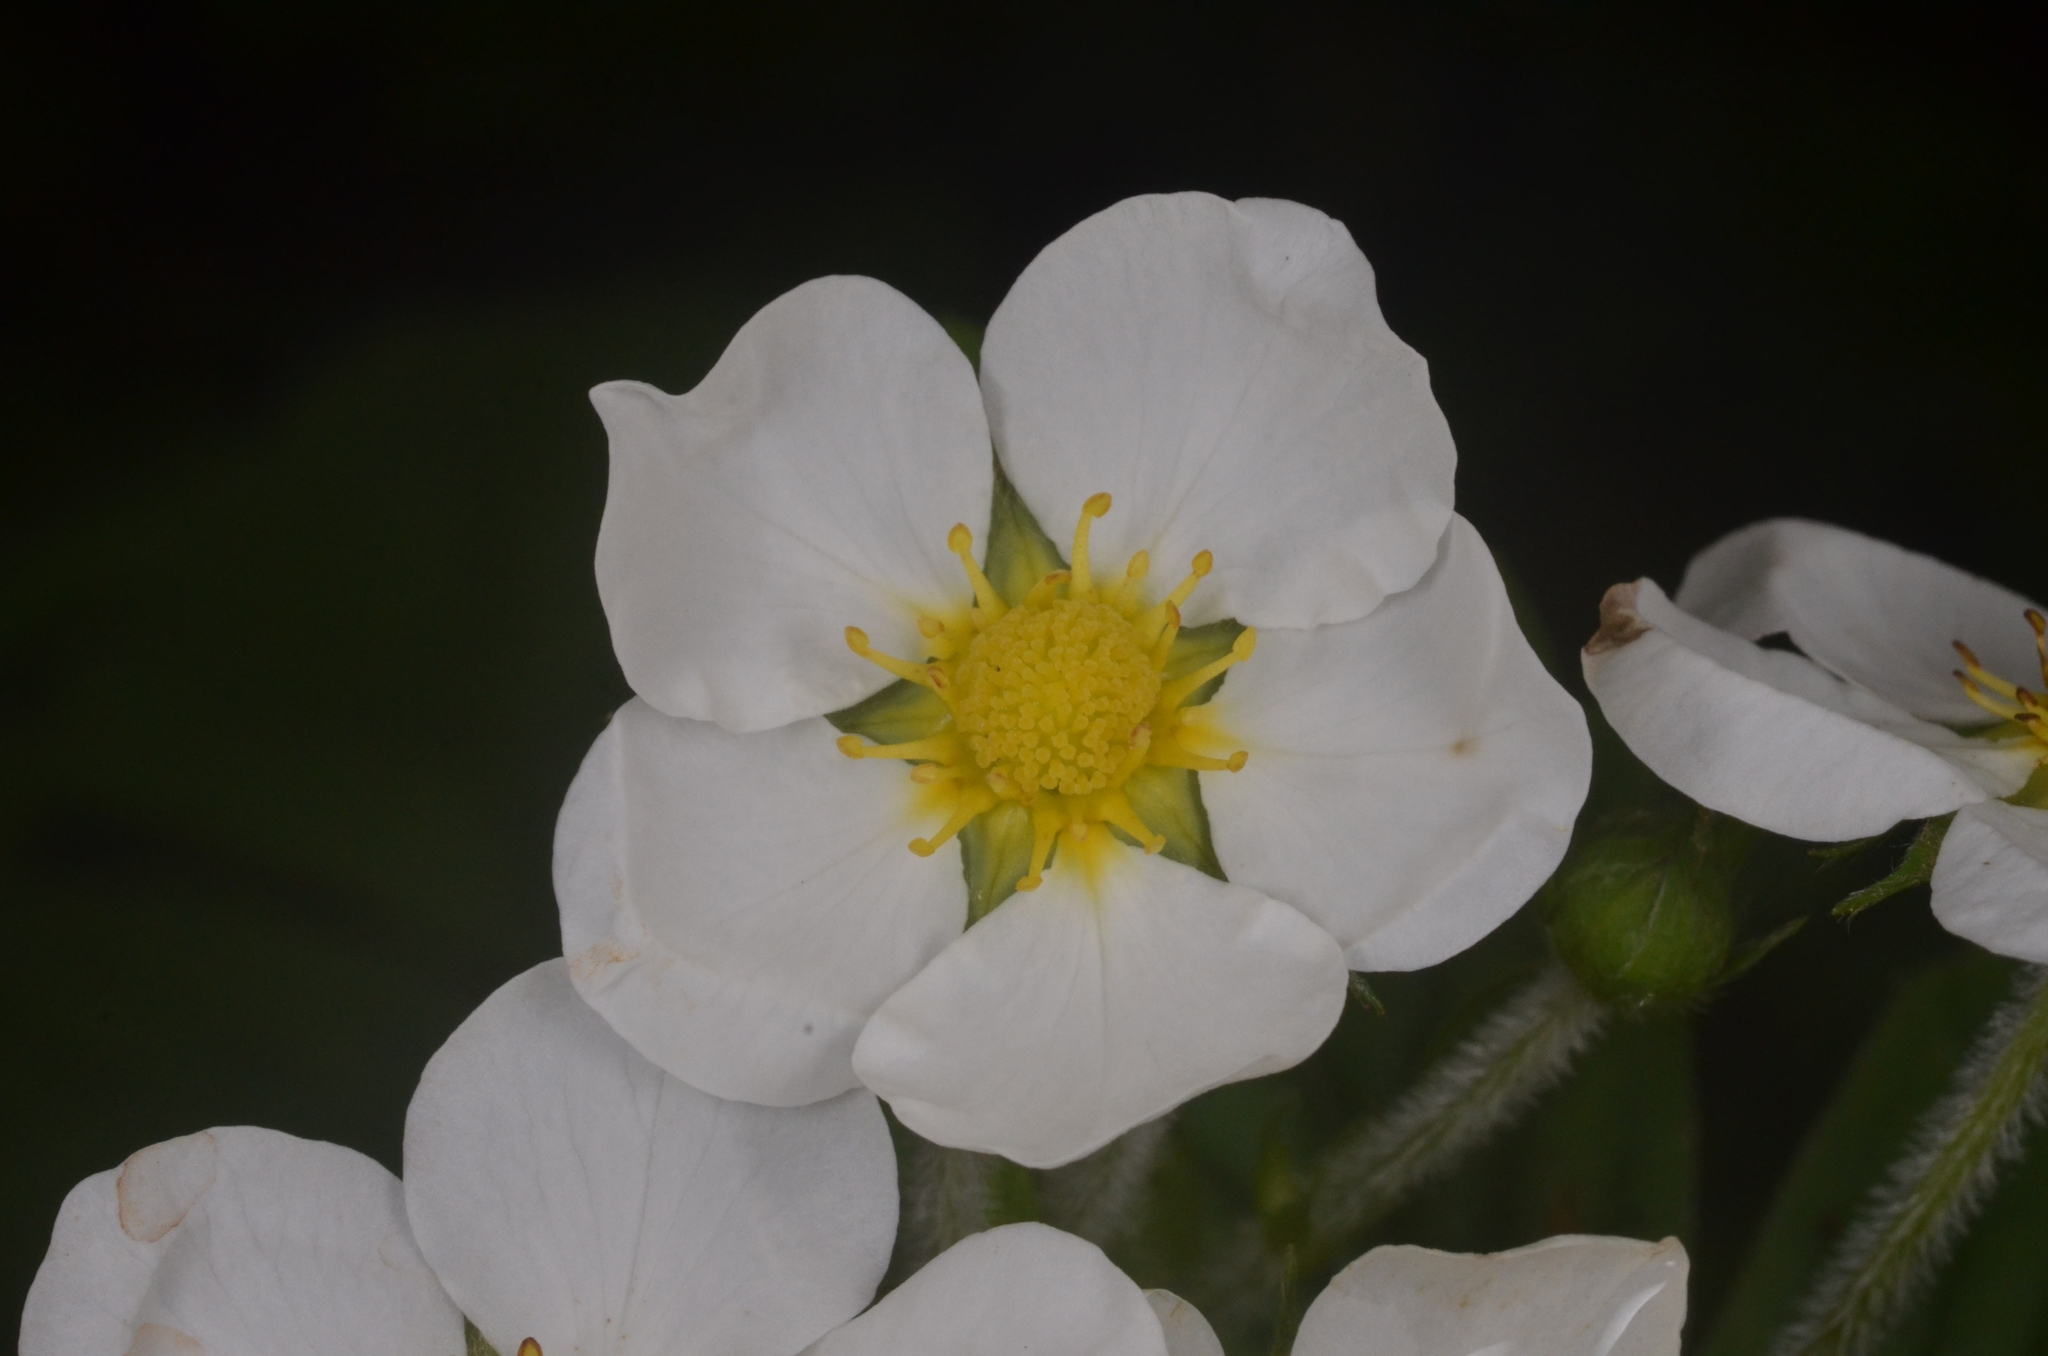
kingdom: Plantae
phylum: Tracheophyta
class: Magnoliopsida
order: Rosales
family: Rosaceae
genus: Fragaria
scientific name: Fragaria moschata
